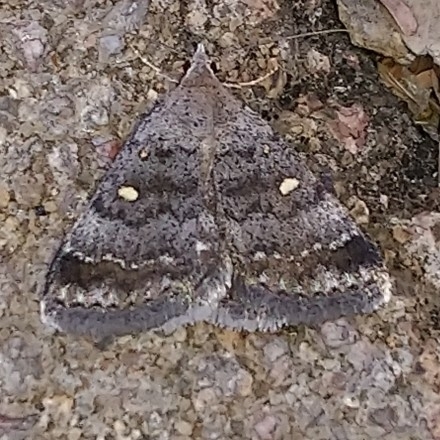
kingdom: Animalia
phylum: Arthropoda
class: Insecta
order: Lepidoptera
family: Erebidae
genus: Acantholipes
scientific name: Acantholipes namacensis
